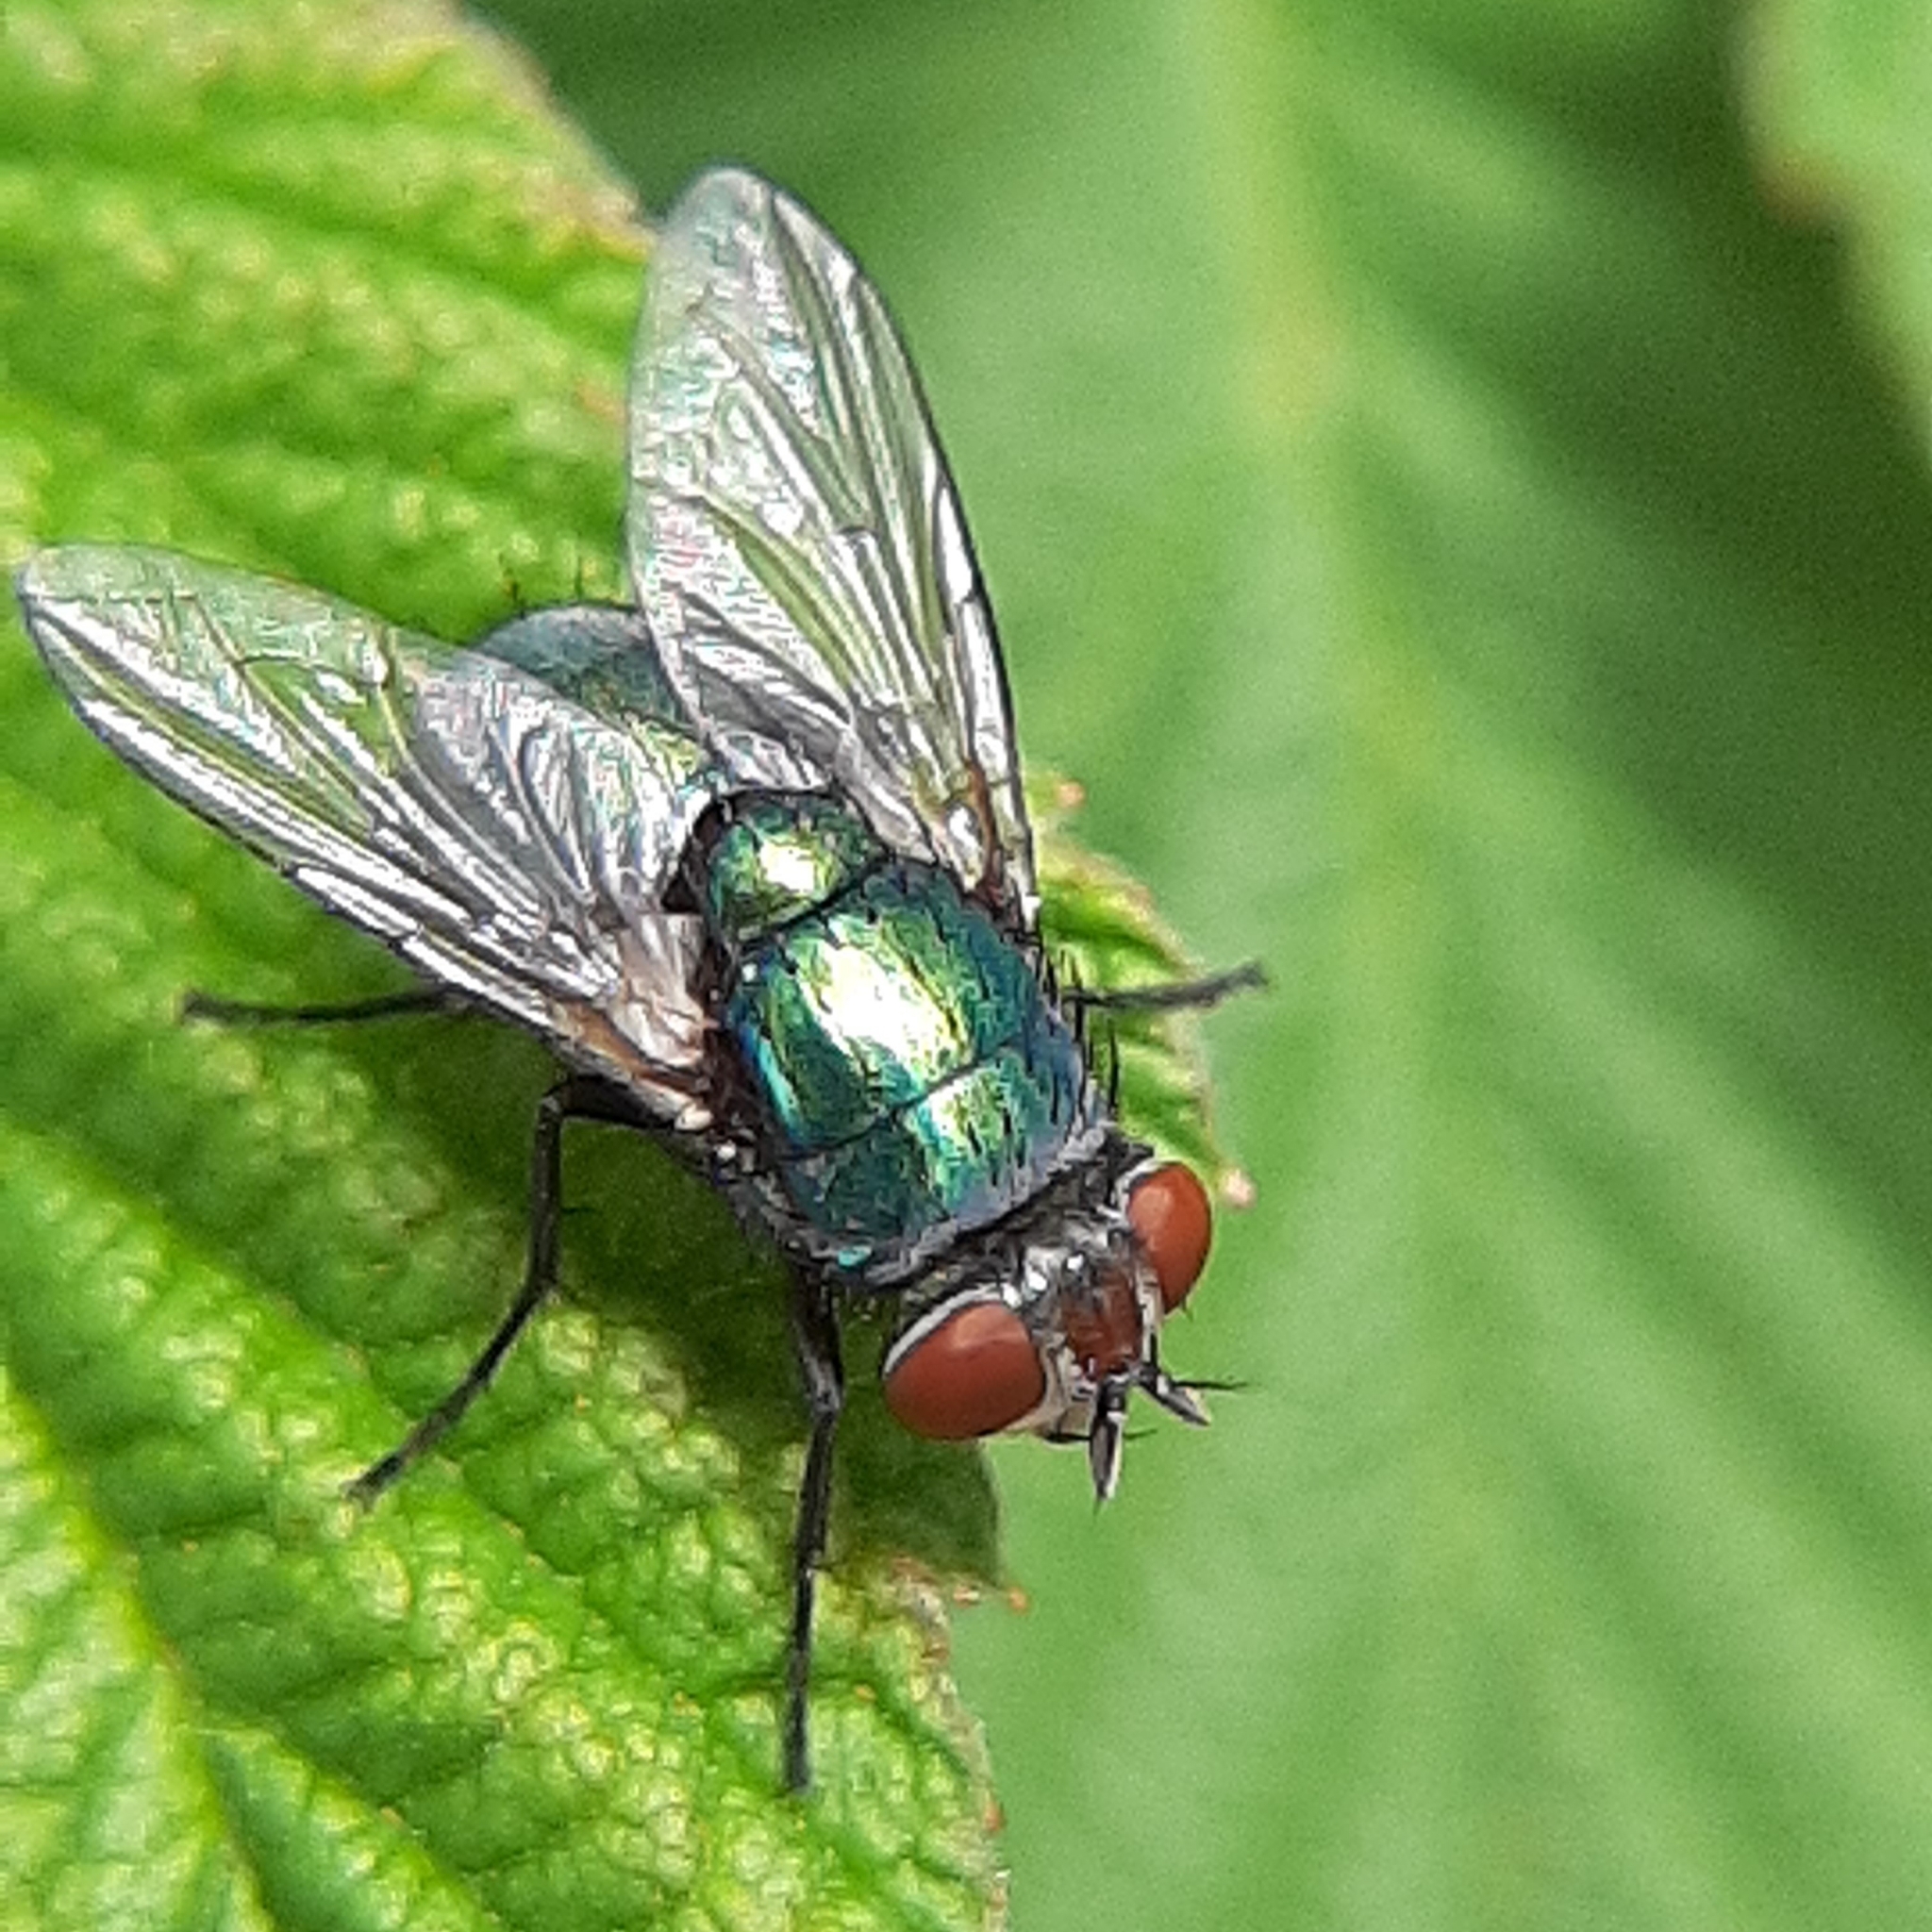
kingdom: Animalia
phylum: Arthropoda
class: Insecta
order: Diptera
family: Calliphoridae
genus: Lucilia
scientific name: Lucilia sericata
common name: Blow fly
